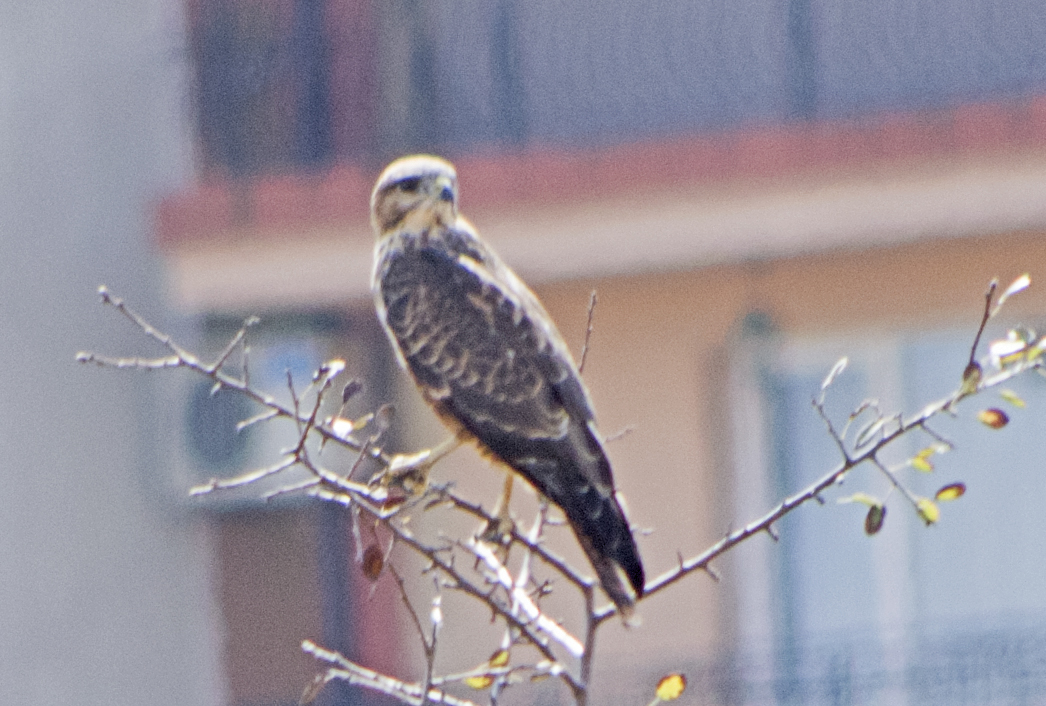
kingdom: Animalia
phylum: Chordata
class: Aves
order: Accipitriformes
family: Accipitridae
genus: Buteo
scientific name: Buteo buteo
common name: Common buzzard
